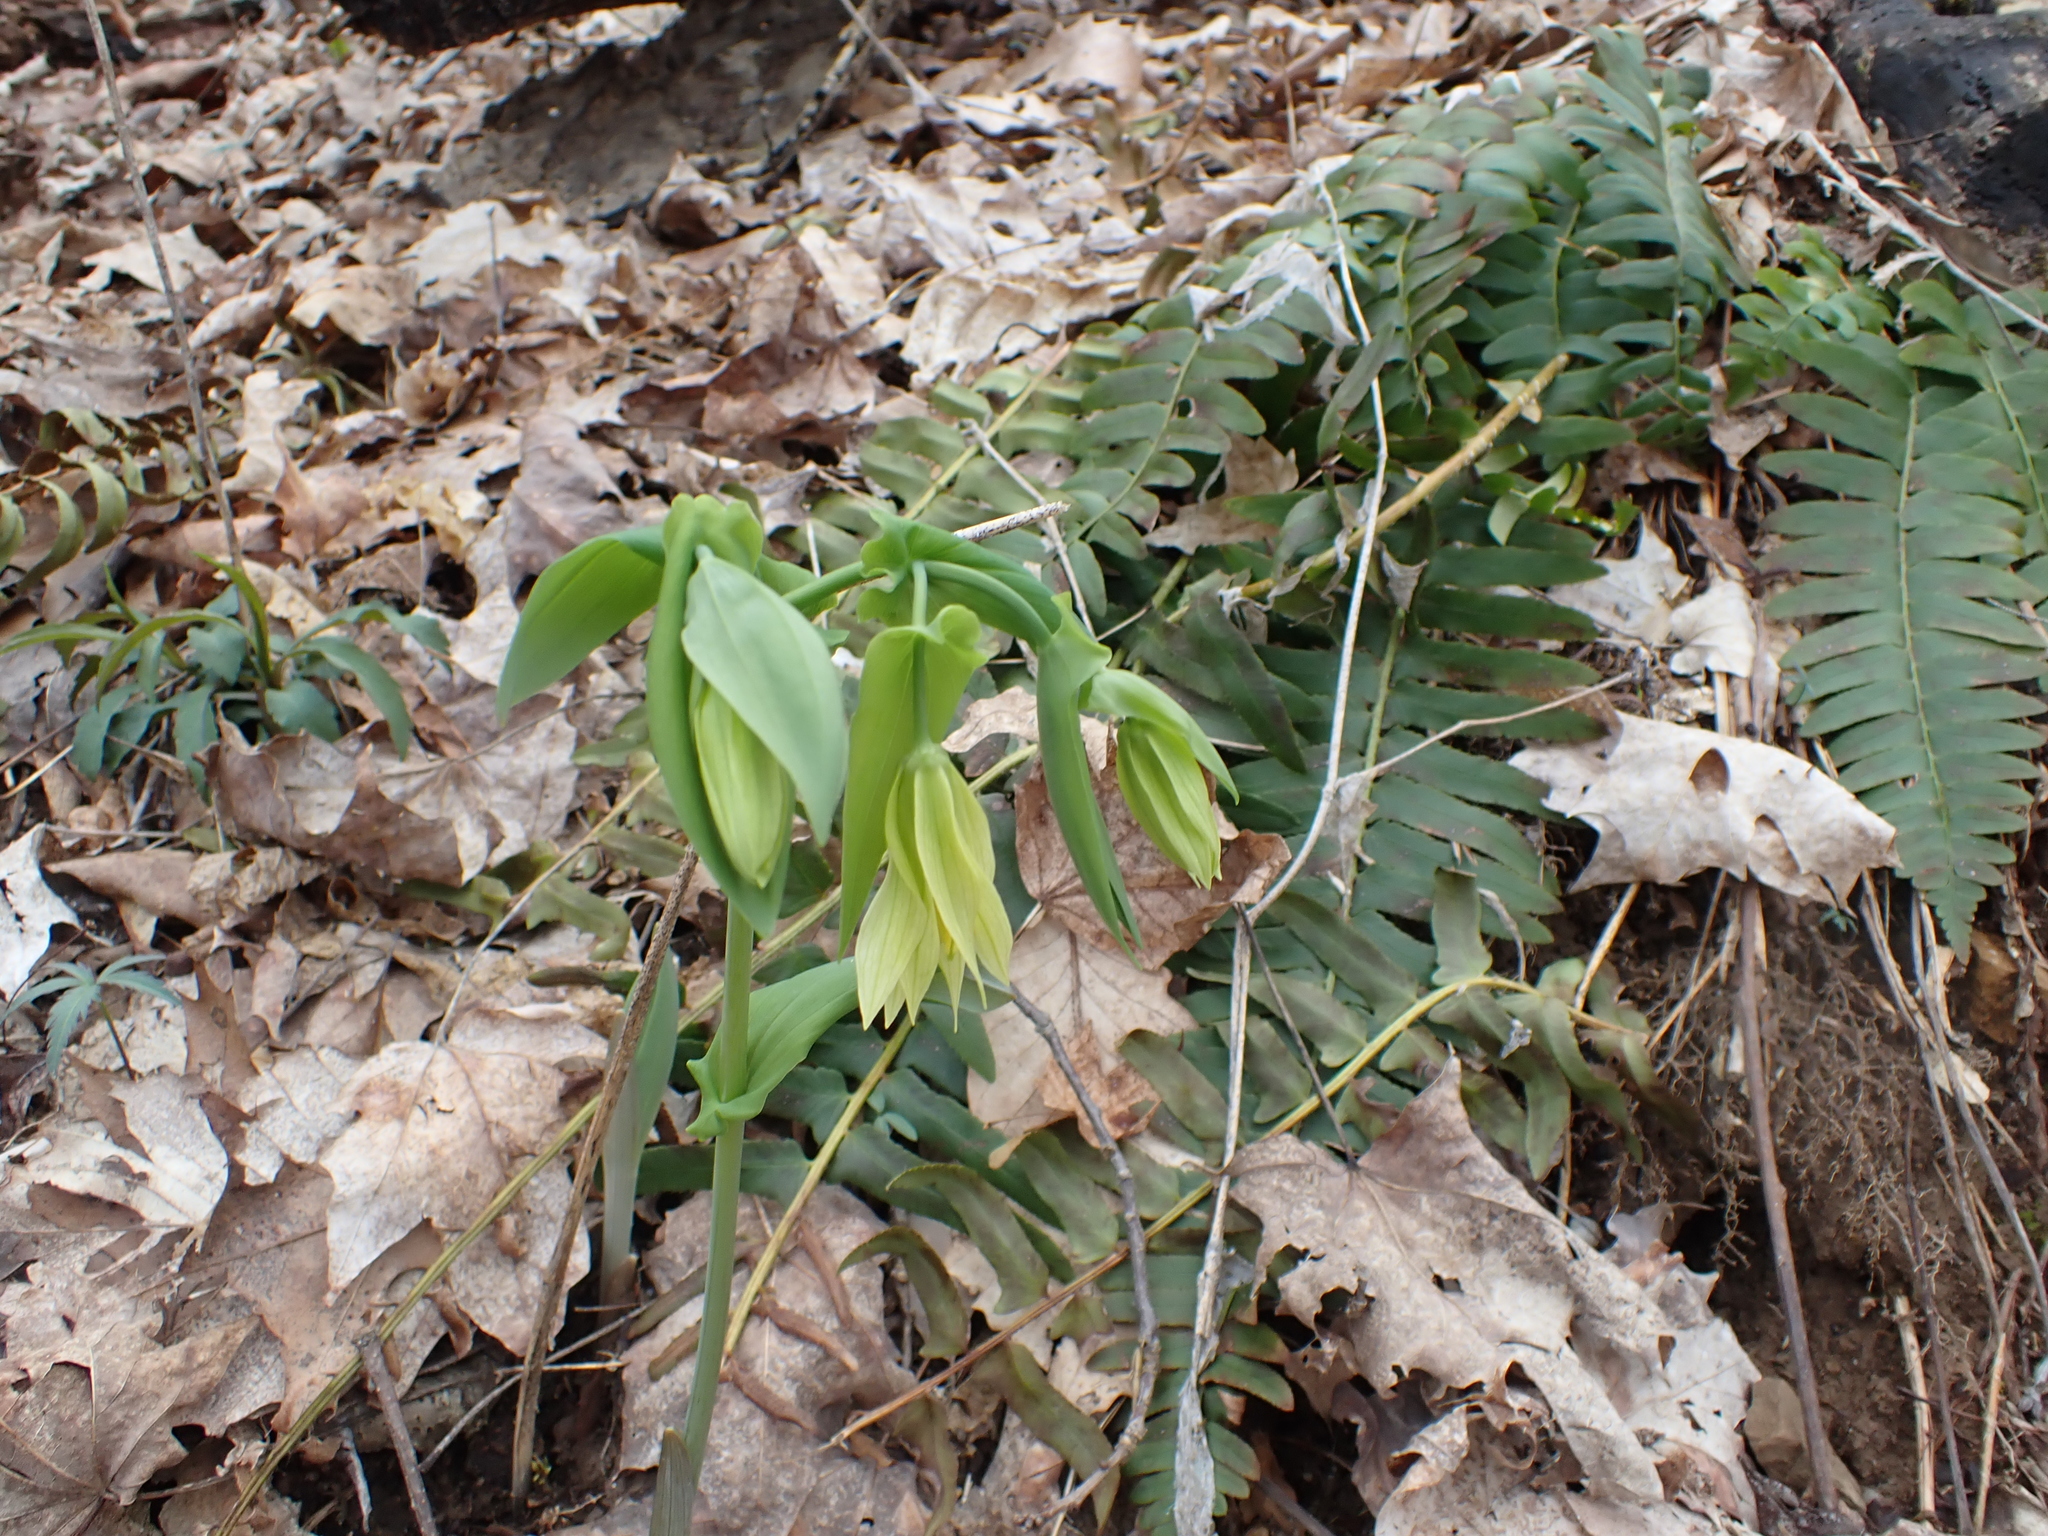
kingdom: Plantae
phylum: Tracheophyta
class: Liliopsida
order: Liliales
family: Colchicaceae
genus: Uvularia
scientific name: Uvularia grandiflora
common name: Bellwort
